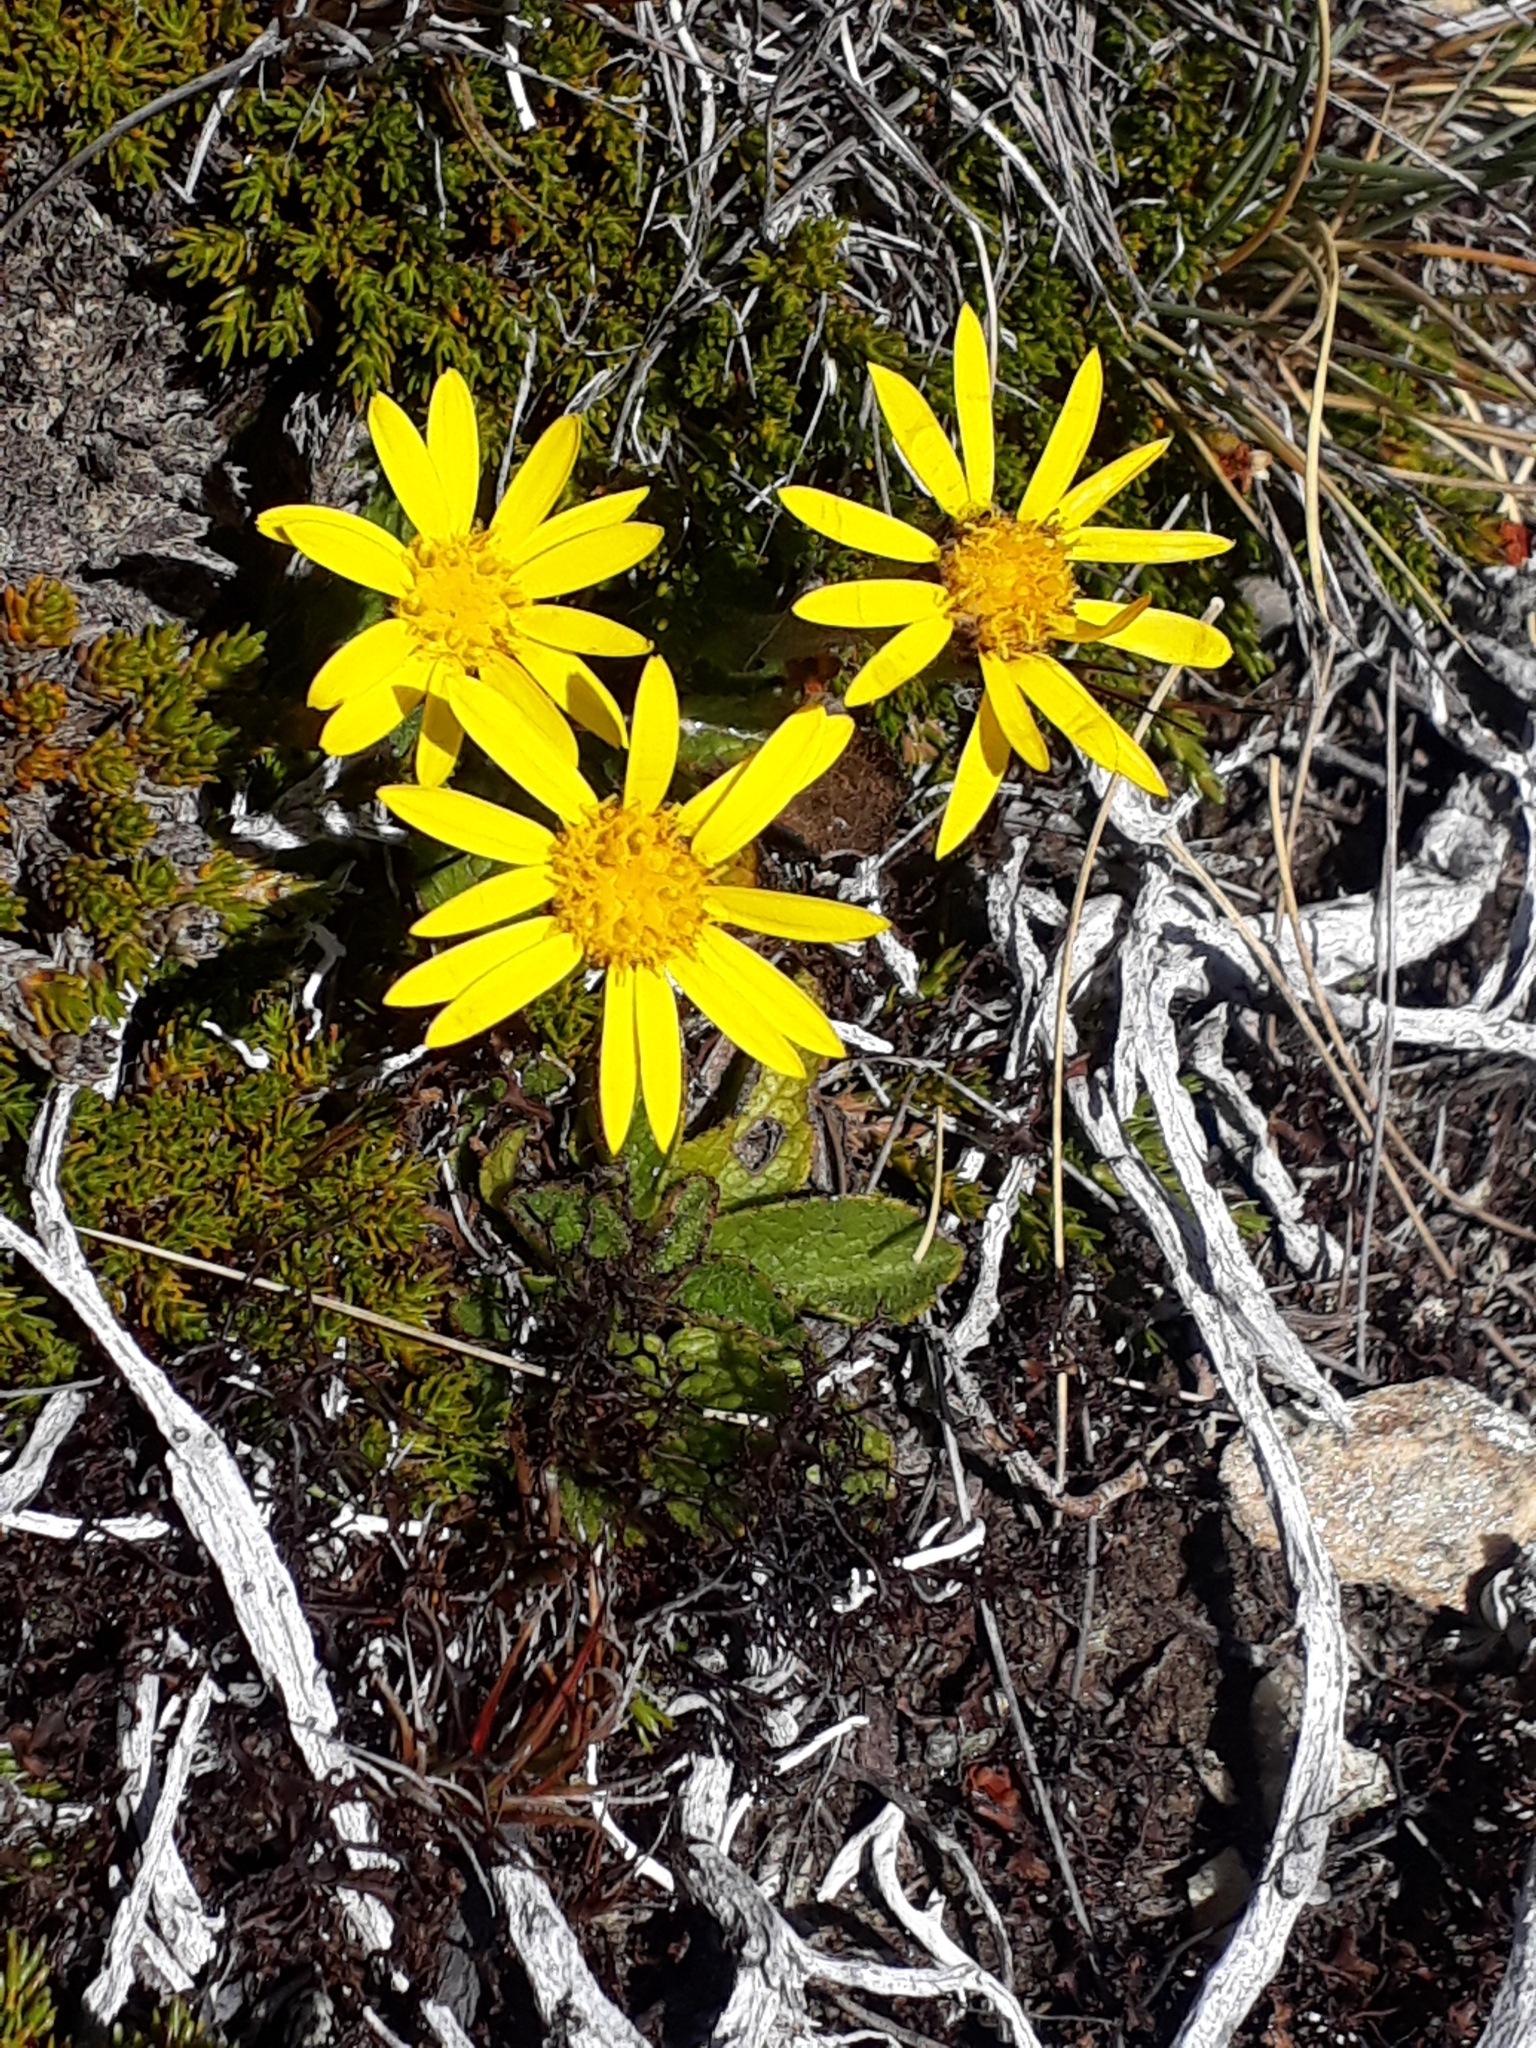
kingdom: Plantae
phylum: Tracheophyta
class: Magnoliopsida
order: Asterales
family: Asteraceae
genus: Brachyglottis
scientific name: Brachyglottis bellidioides
